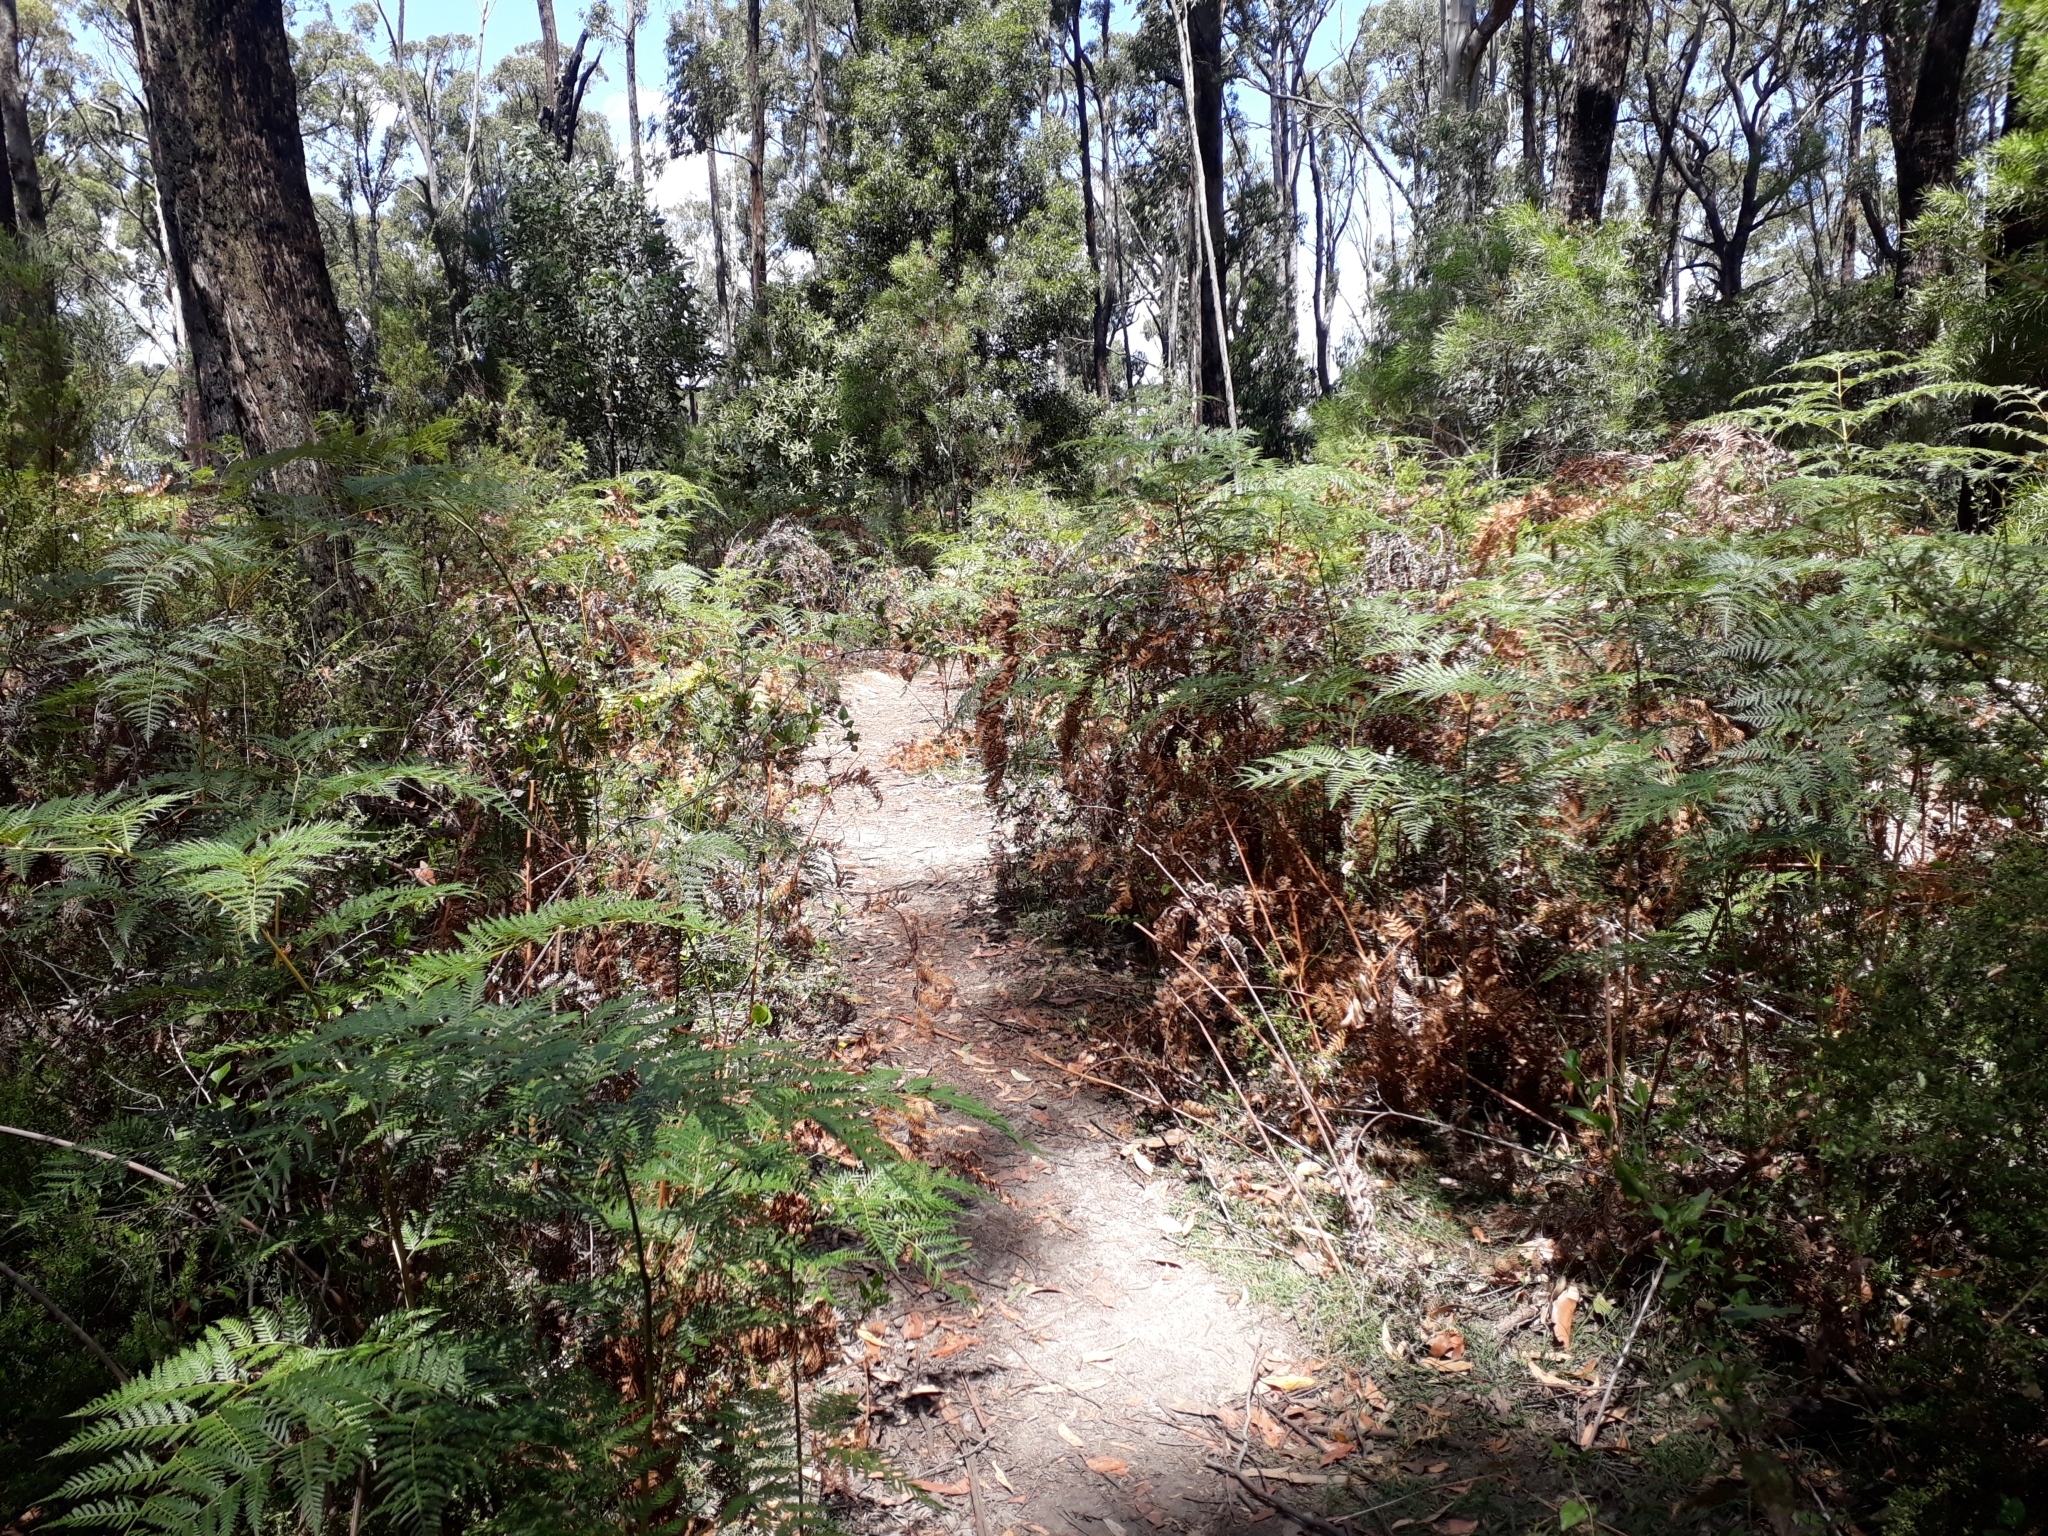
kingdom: Plantae
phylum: Tracheophyta
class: Polypodiopsida
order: Polypodiales
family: Dennstaedtiaceae
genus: Pteridium
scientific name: Pteridium esculentum
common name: Bracken fern
